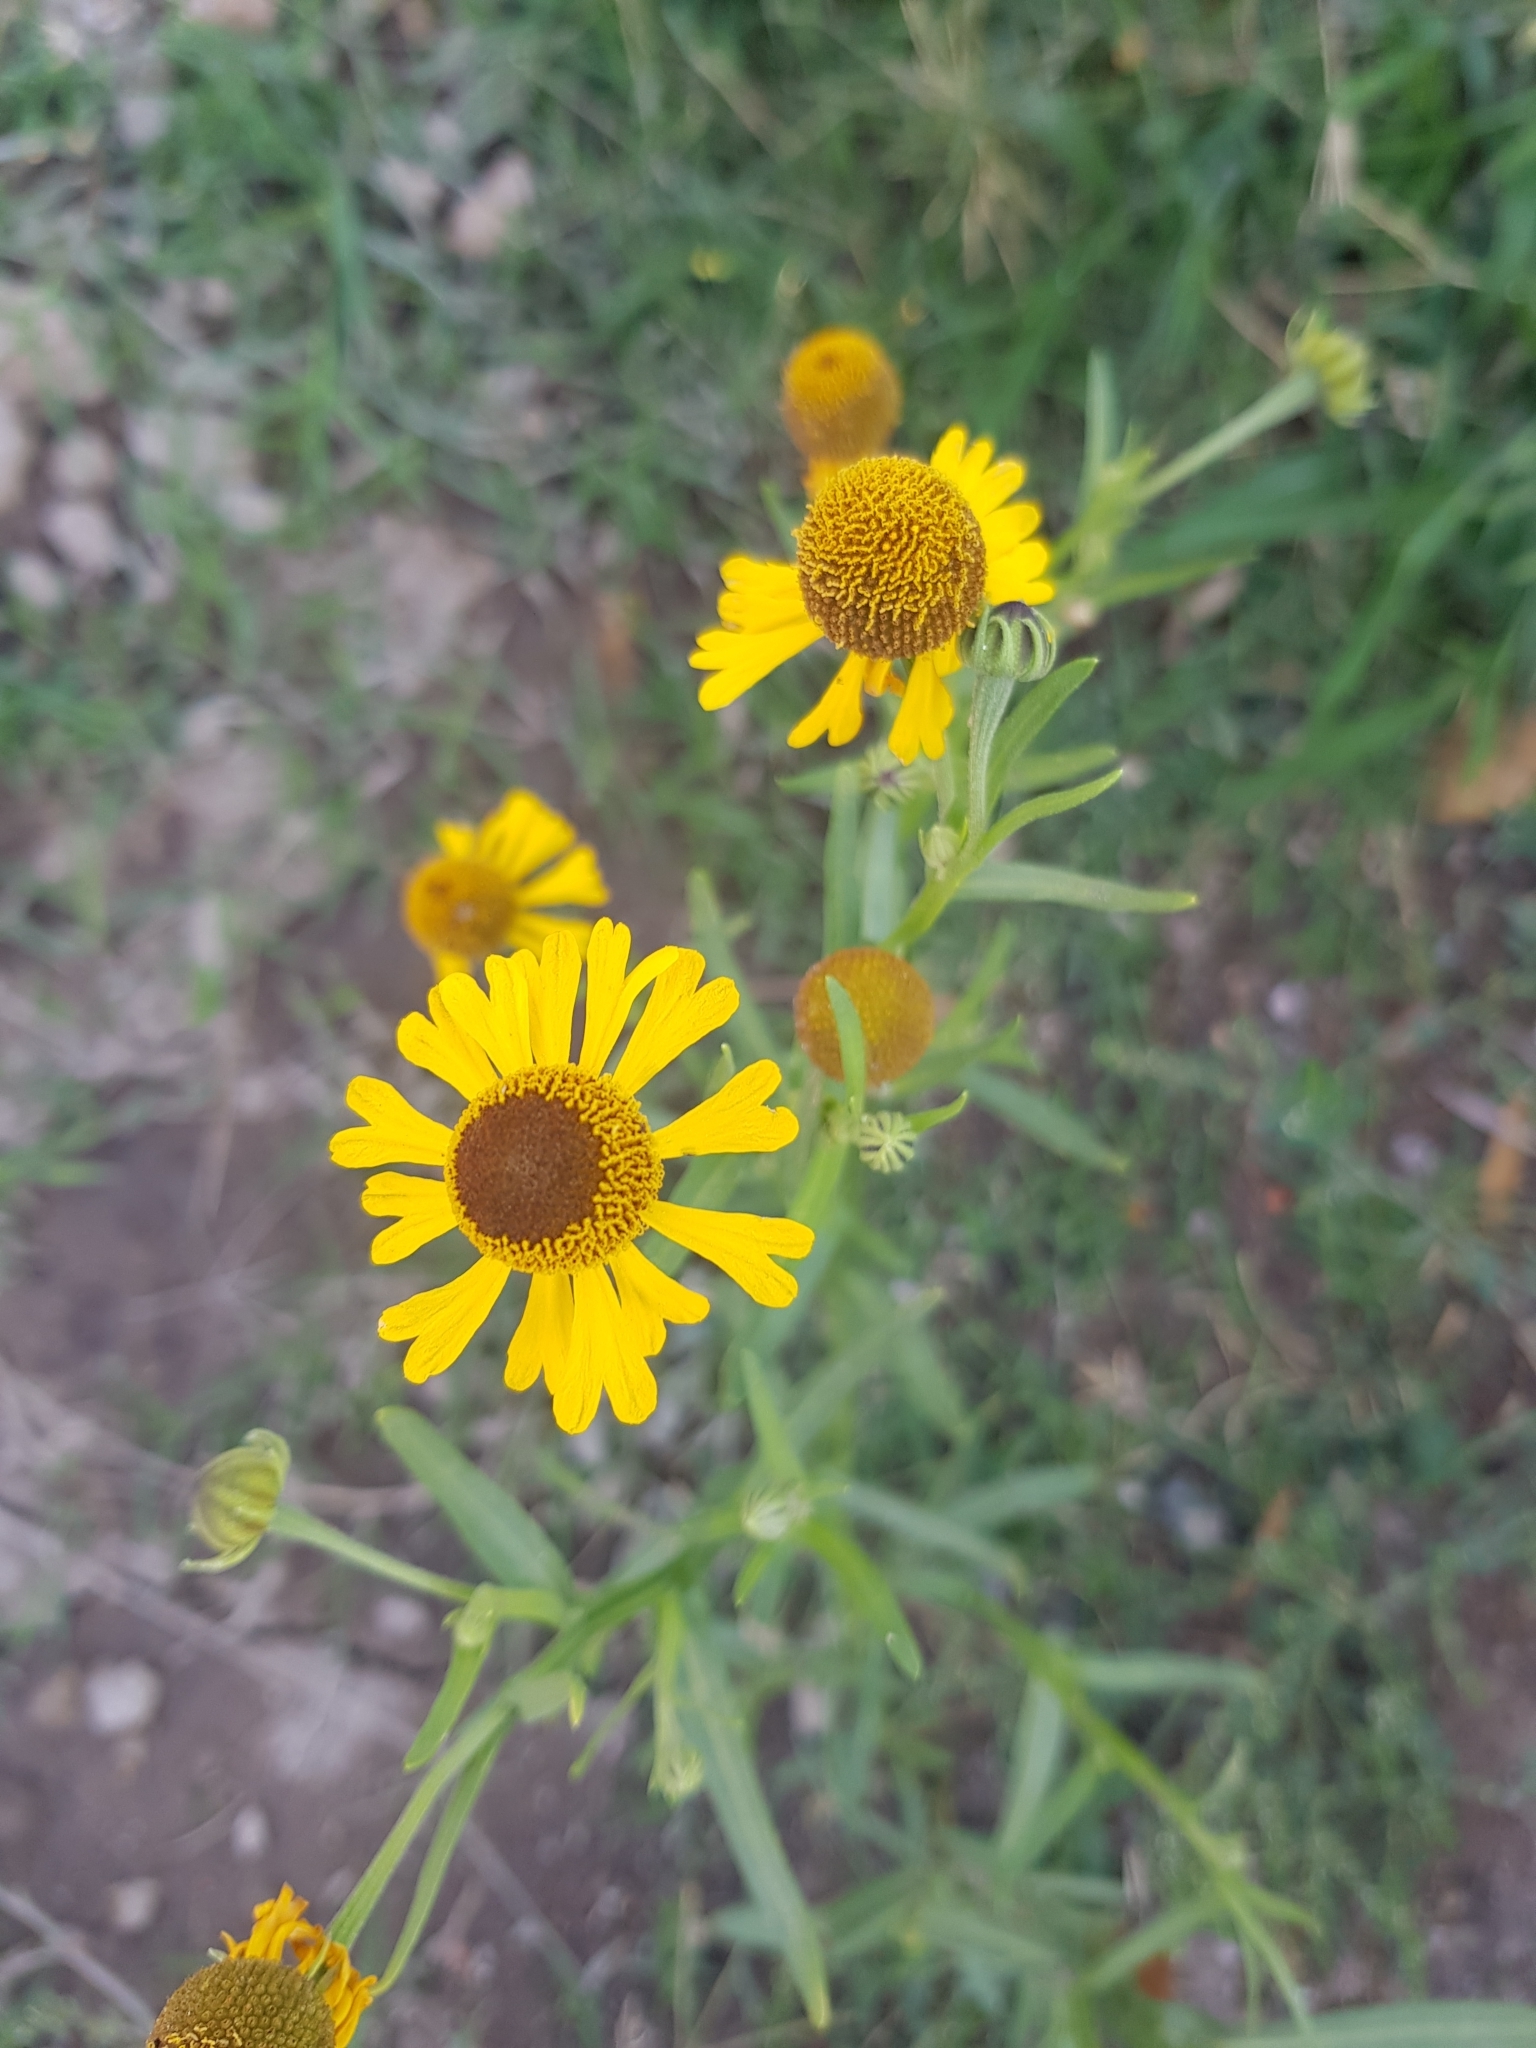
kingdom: Plantae
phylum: Tracheophyta
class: Magnoliopsida
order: Asterales
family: Asteraceae
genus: Helenium
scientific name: Helenium mexicanum
